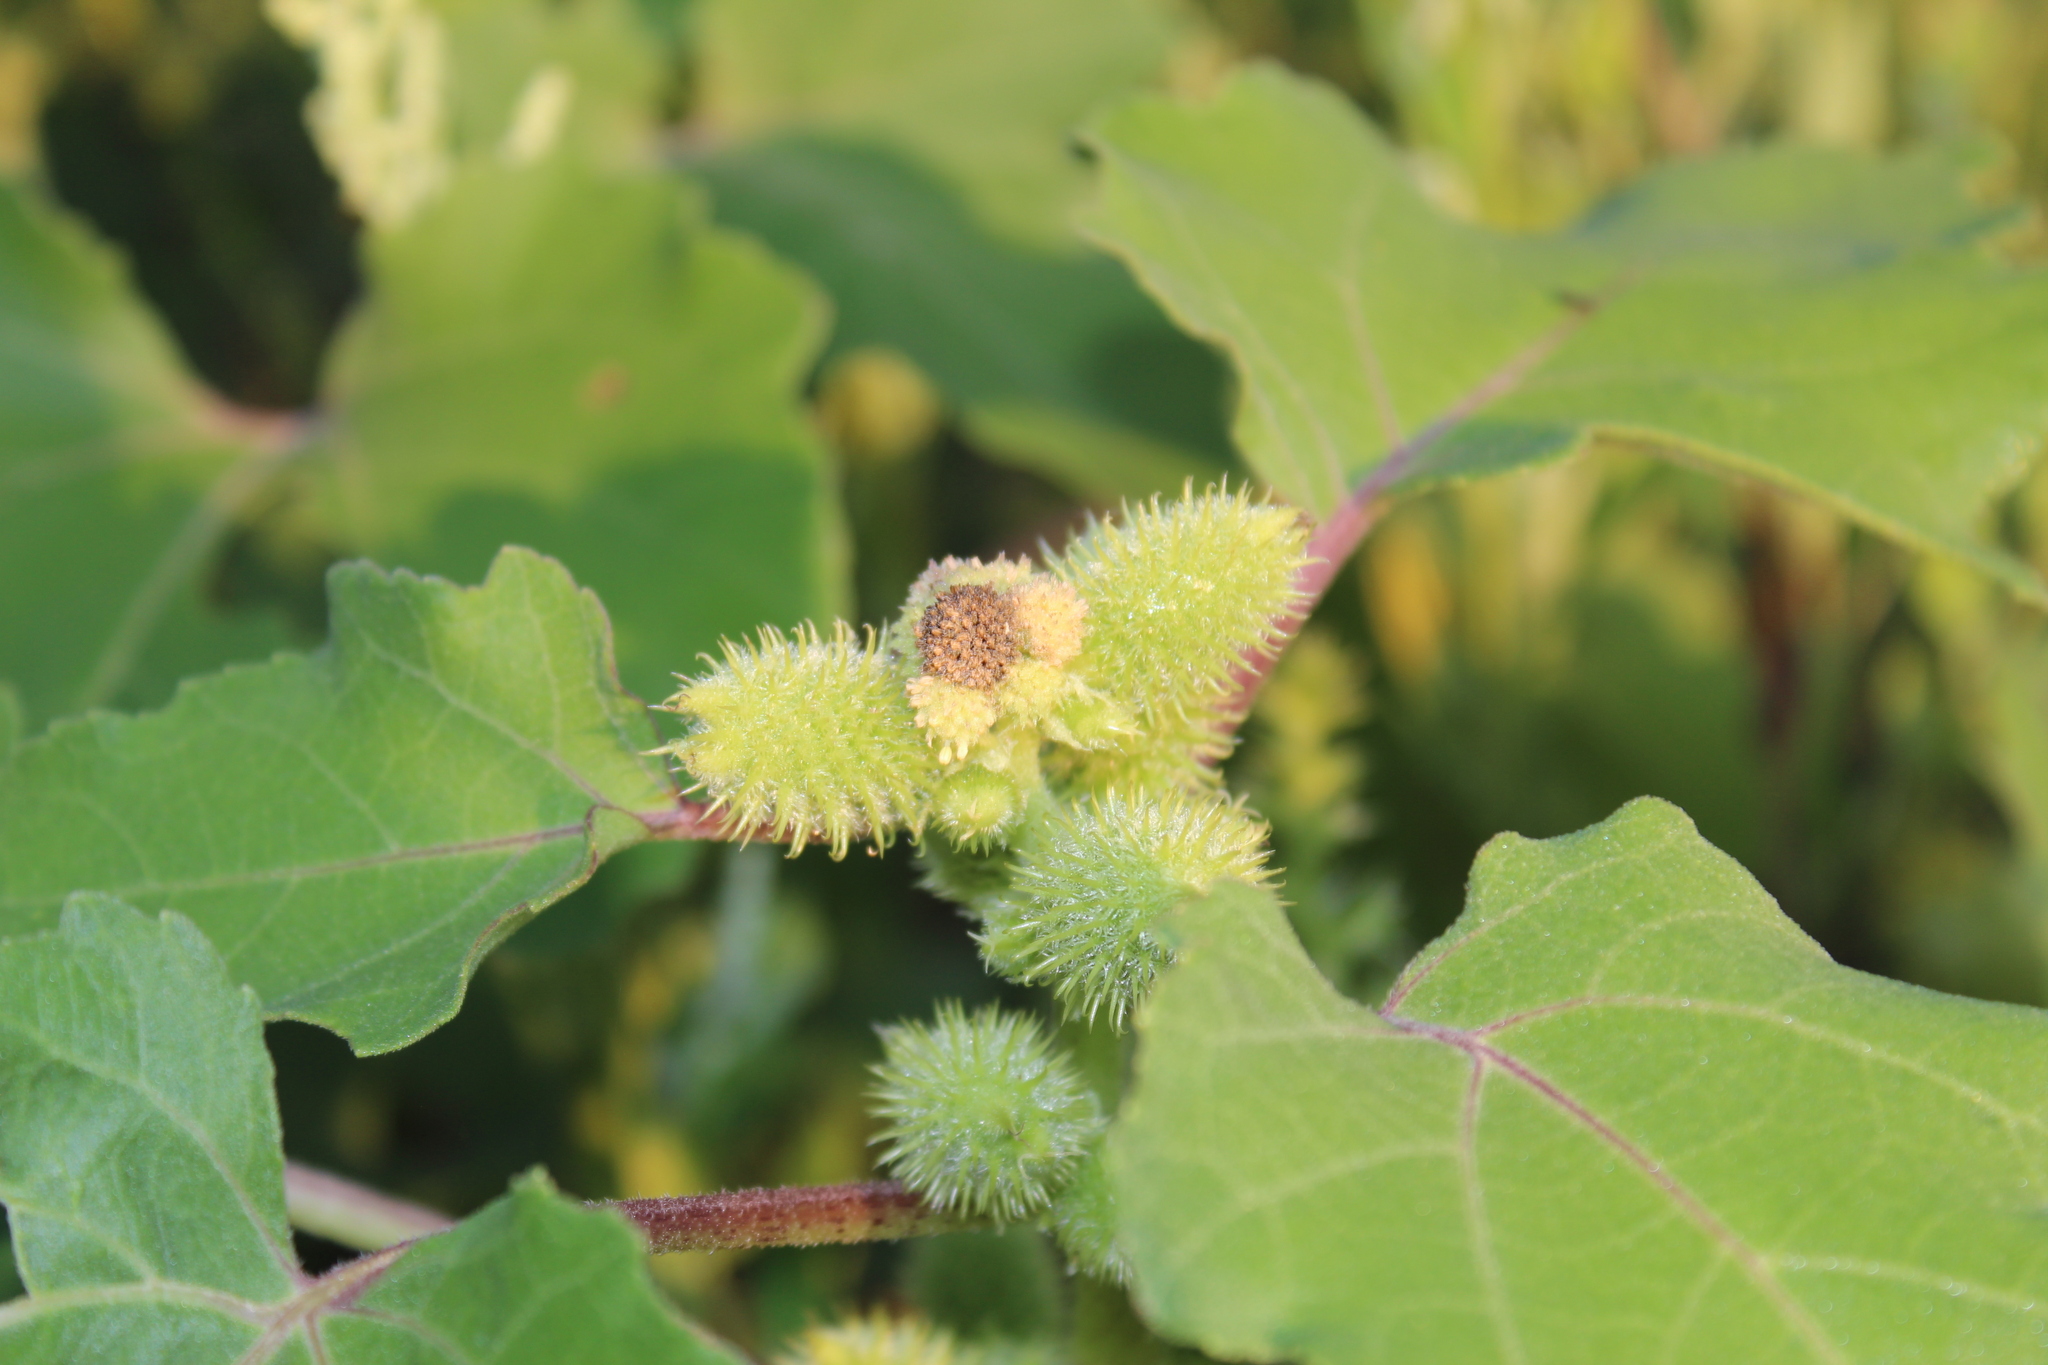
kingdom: Plantae
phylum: Tracheophyta
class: Magnoliopsida
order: Asterales
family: Asteraceae
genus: Xanthium
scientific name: Xanthium strumarium
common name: Rough cocklebur
